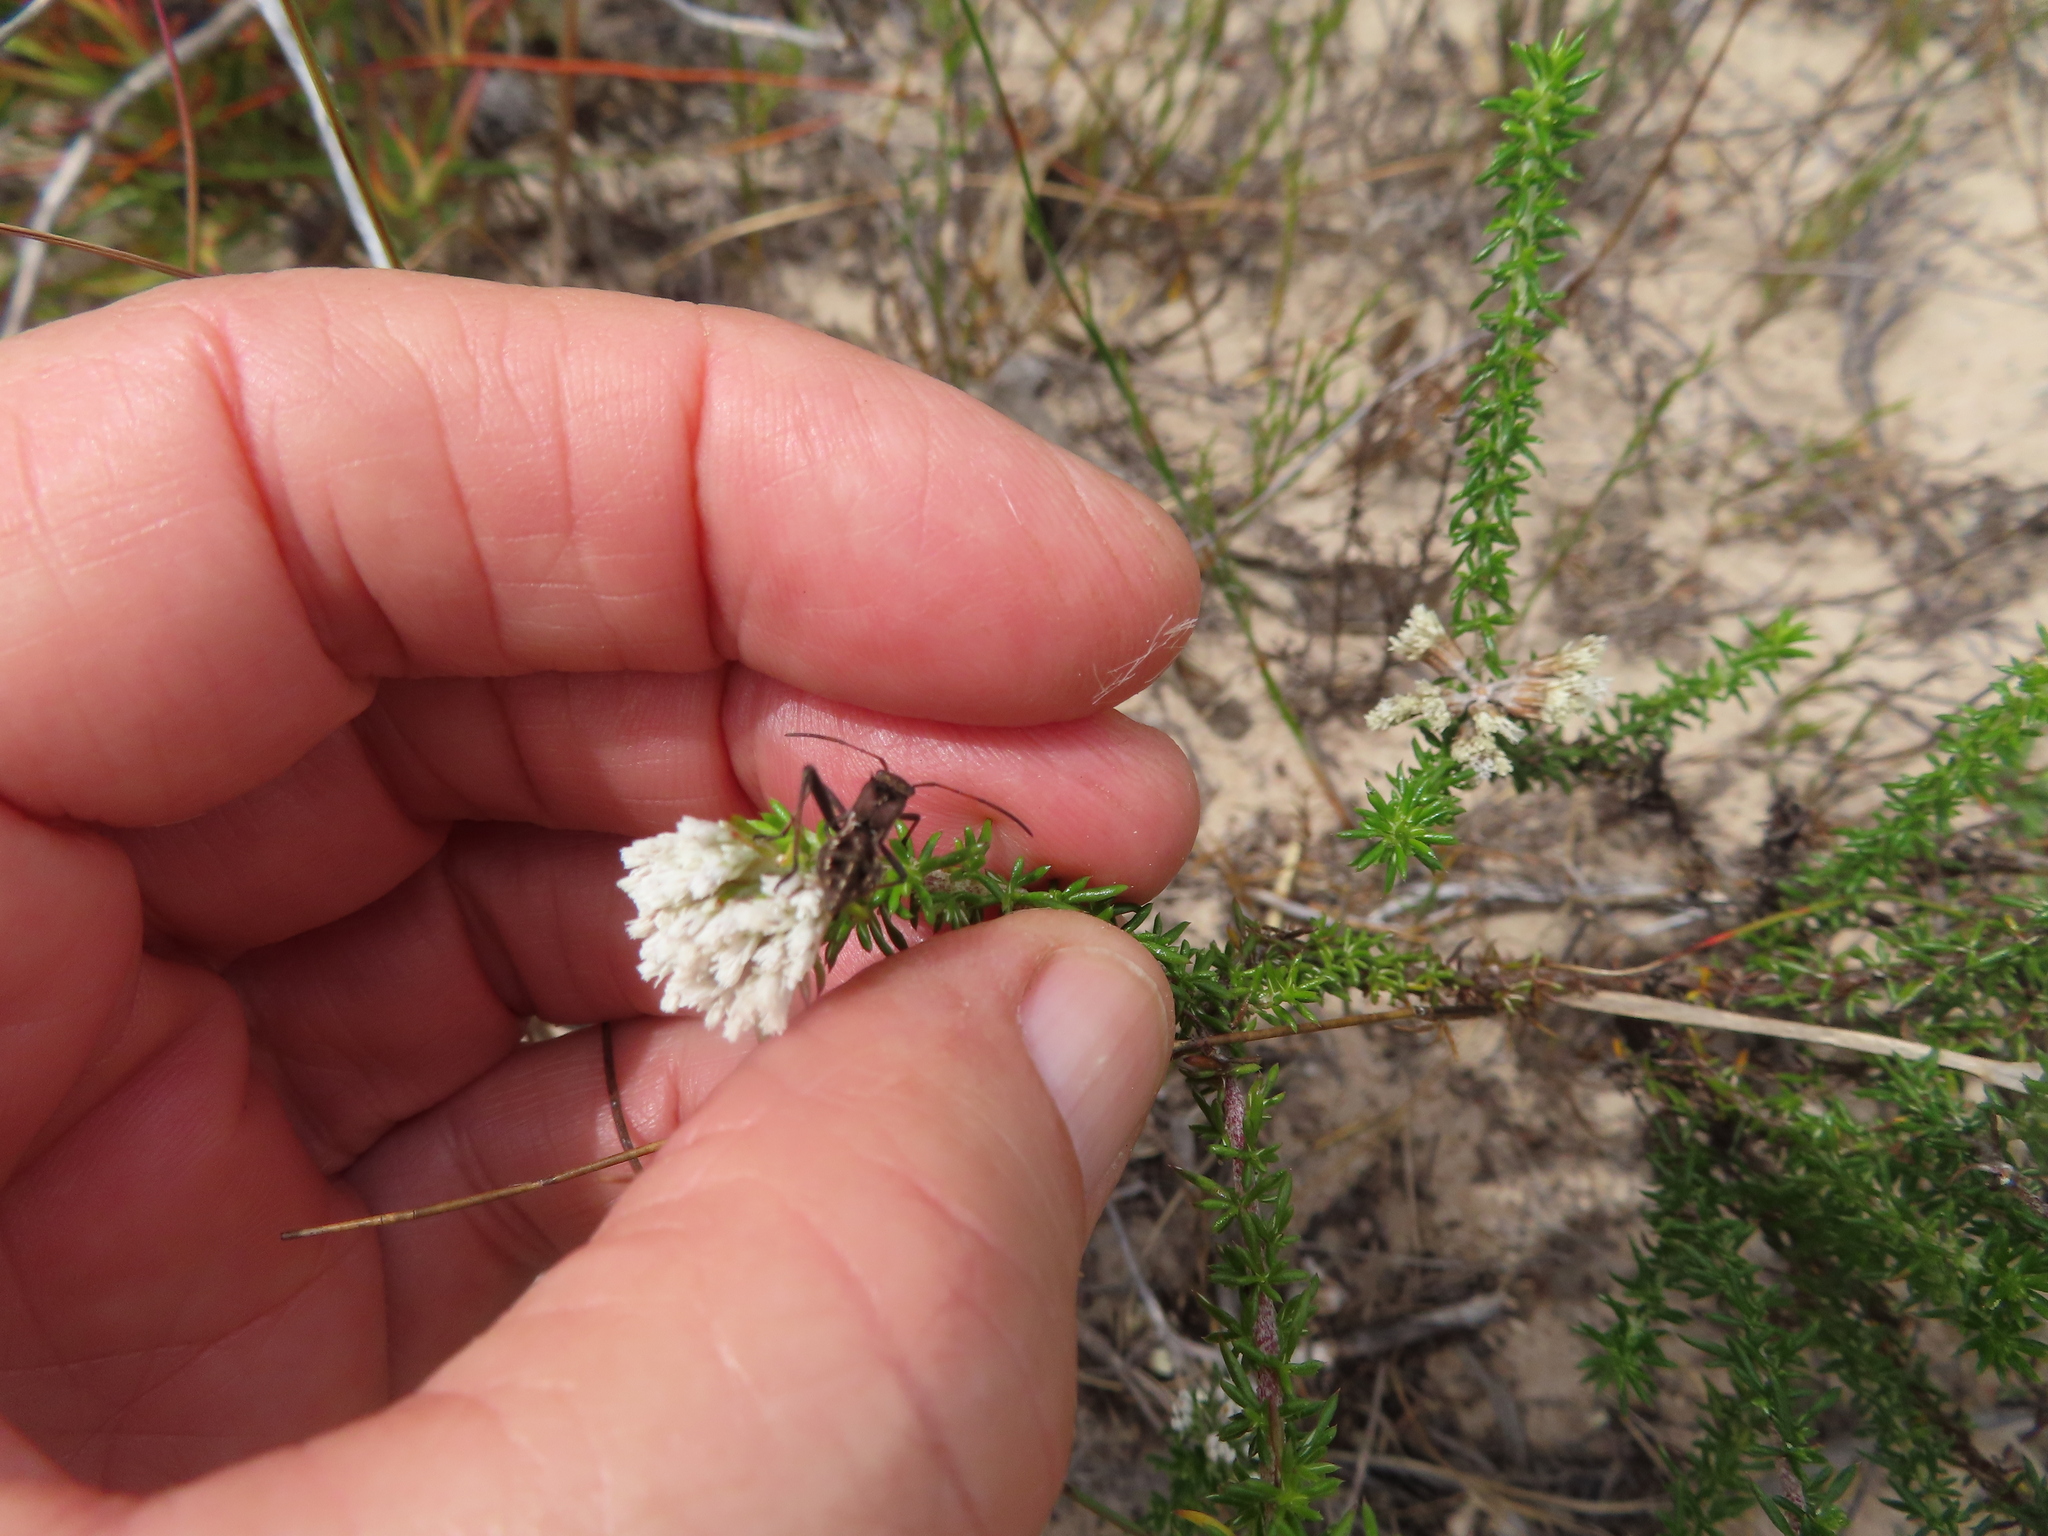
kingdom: Plantae
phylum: Tracheophyta
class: Magnoliopsida
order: Asterales
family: Asteraceae
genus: Metalasia
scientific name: Metalasia brevifolia
